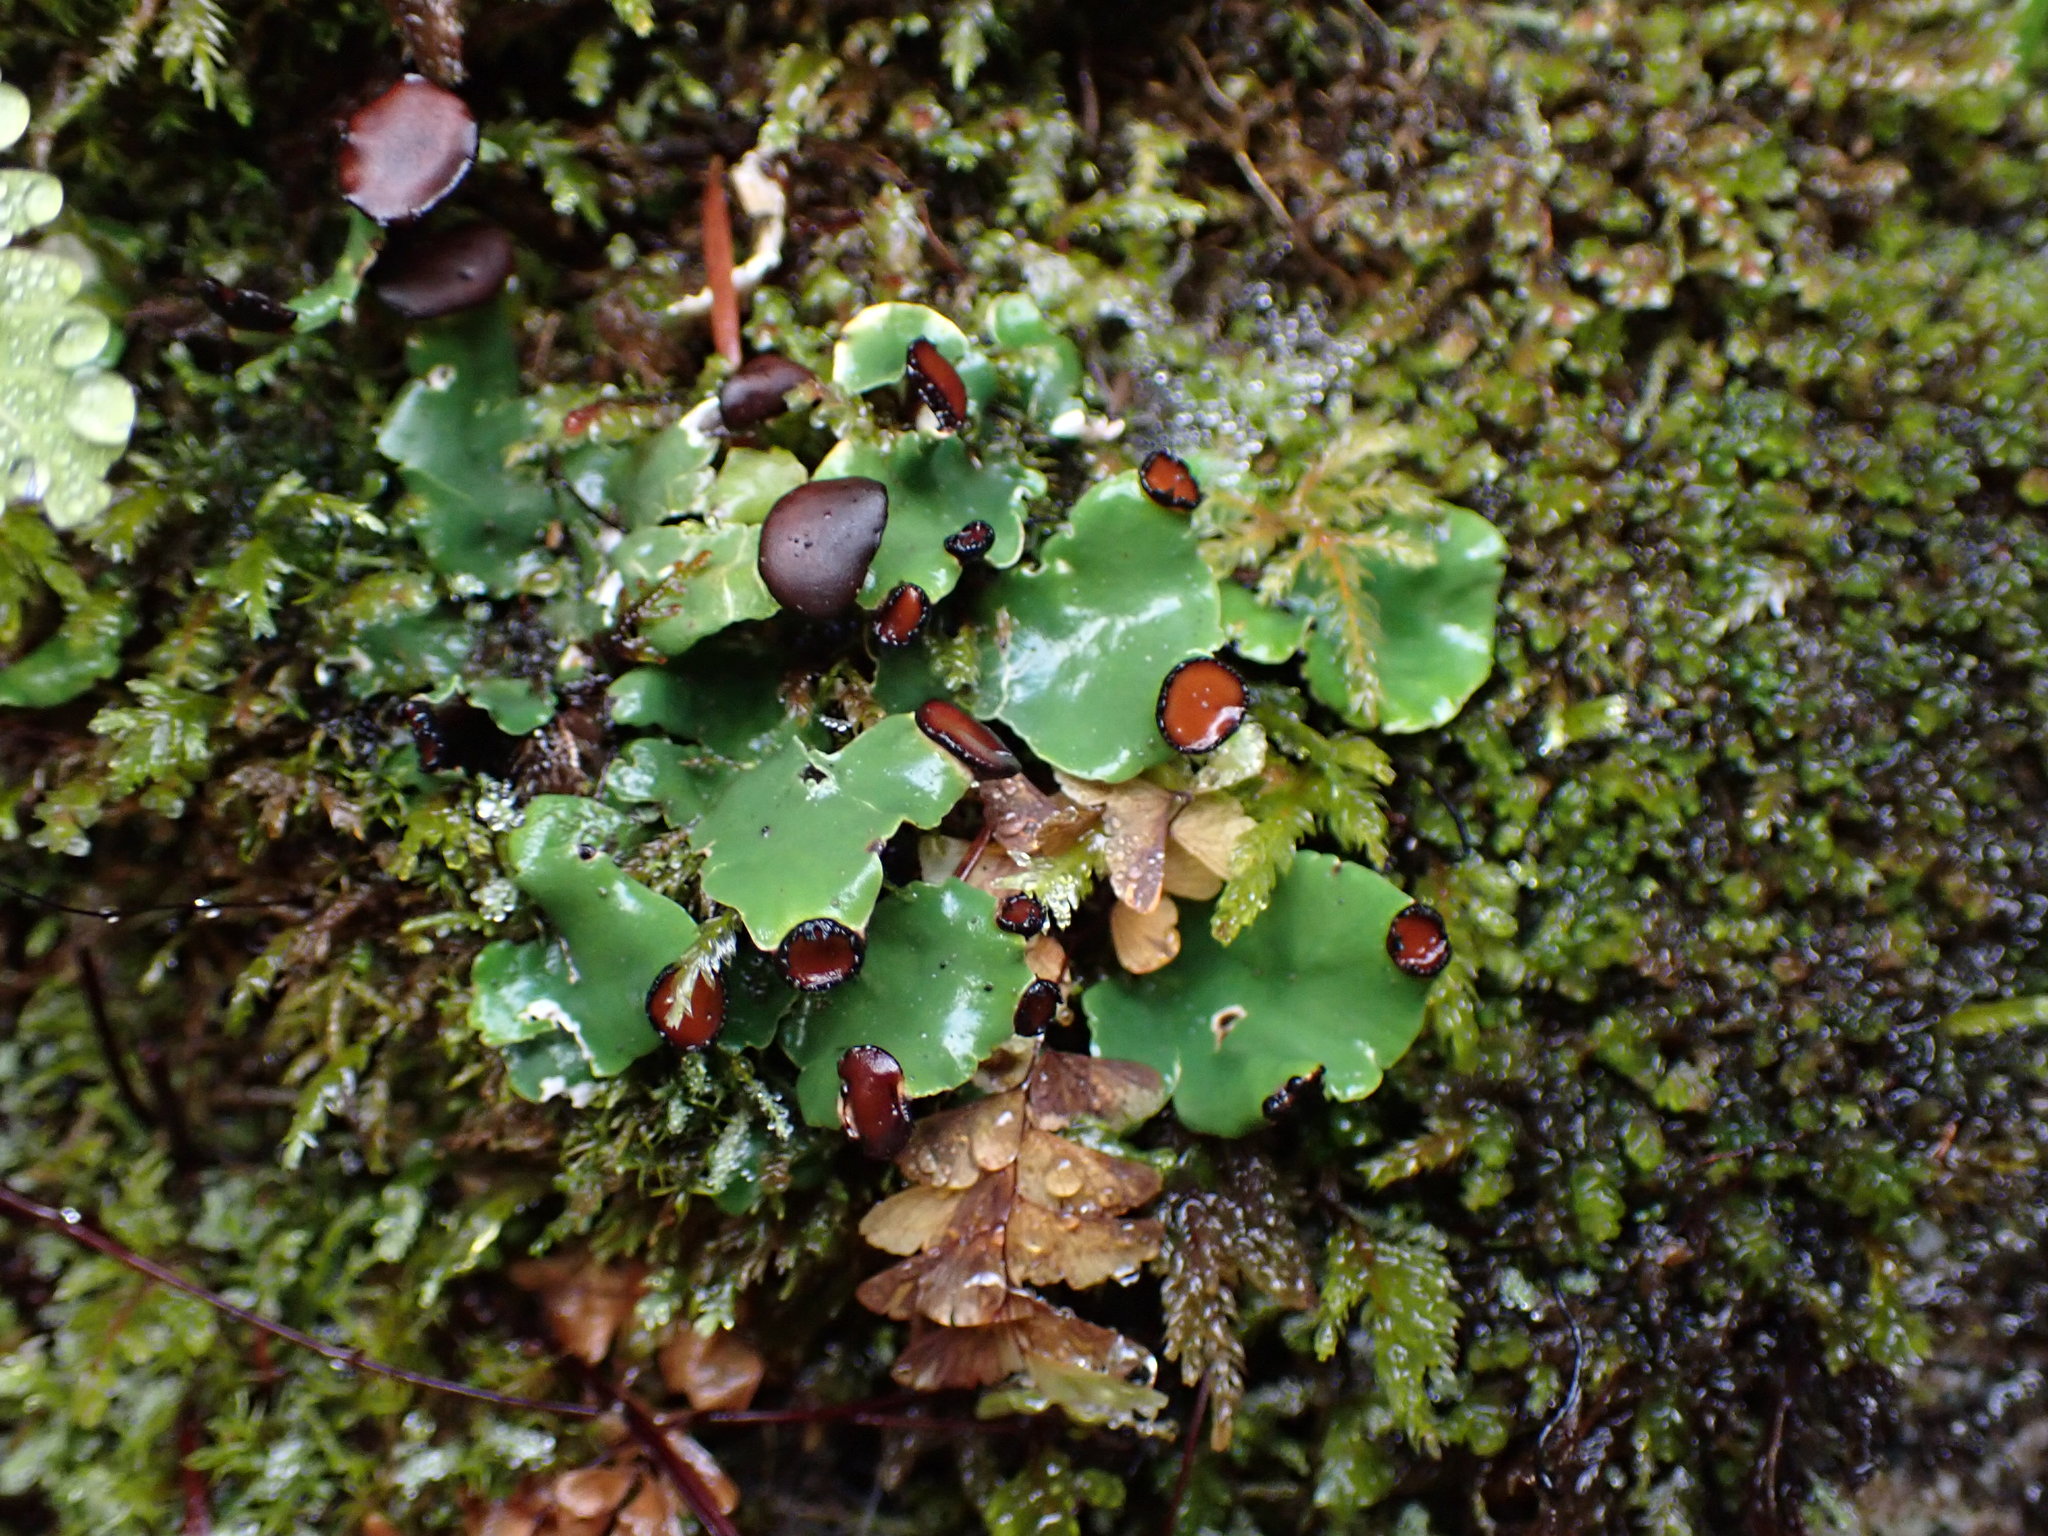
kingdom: Fungi
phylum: Ascomycota
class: Lecanoromycetes
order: Peltigerales
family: Peltigeraceae
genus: Peltigera
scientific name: Peltigera venosa
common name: Pixie gowns lichen
